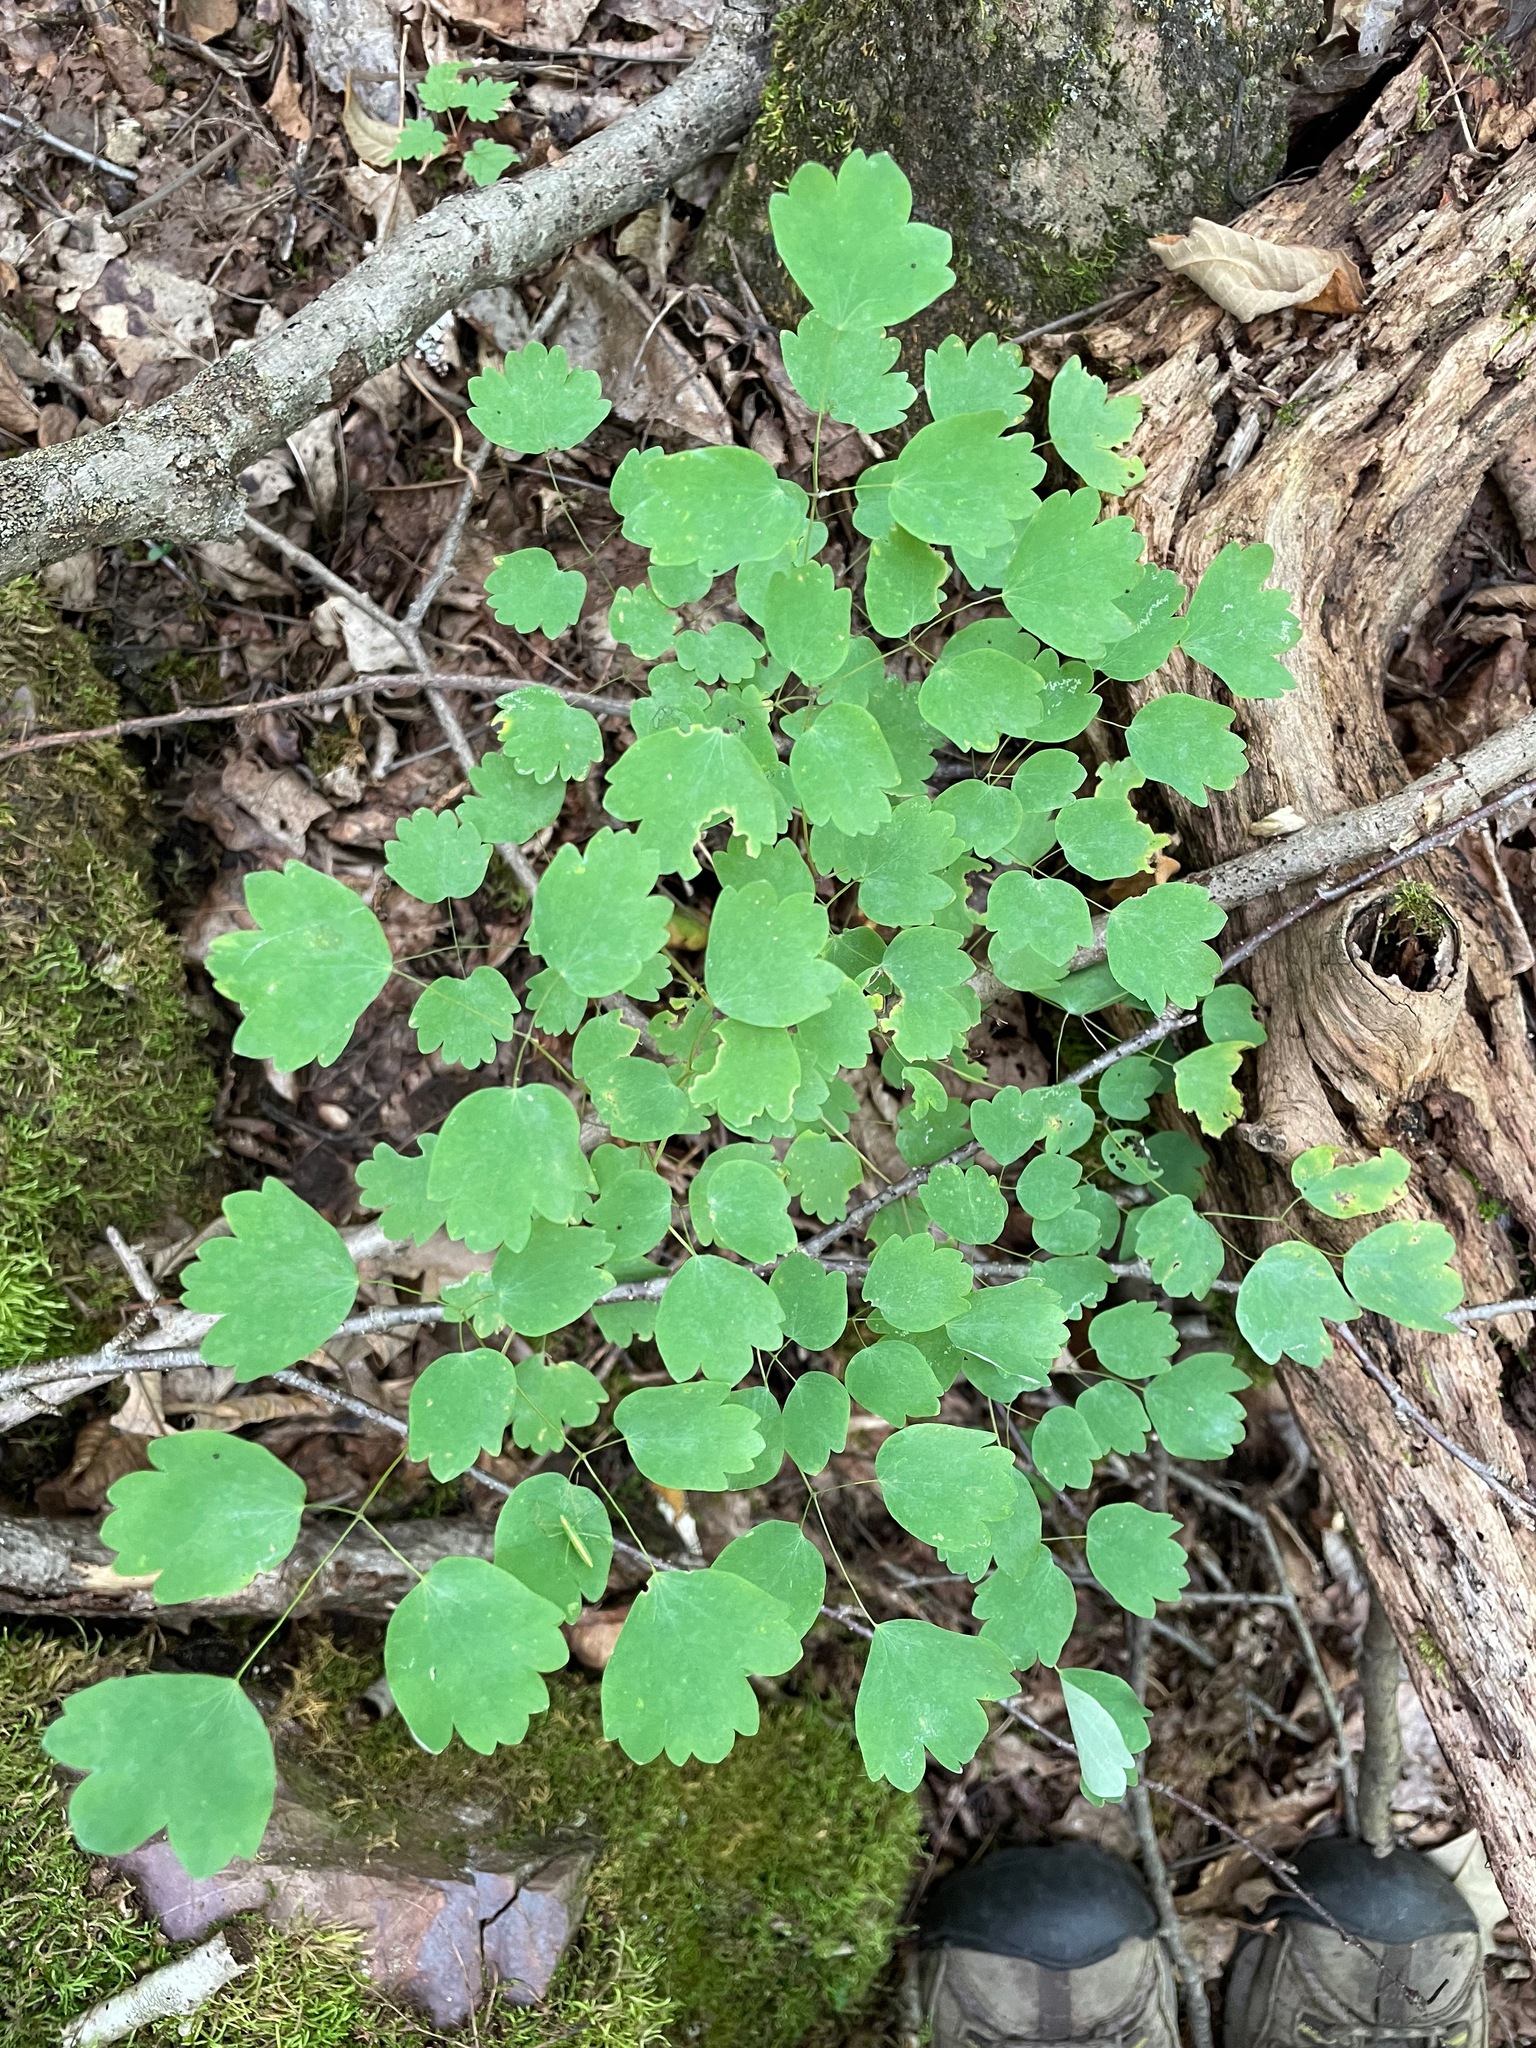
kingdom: Plantae
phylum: Tracheophyta
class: Magnoliopsida
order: Ranunculales
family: Ranunculaceae
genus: Thalictrum
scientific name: Thalictrum dioicum
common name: Early meadow-rue
